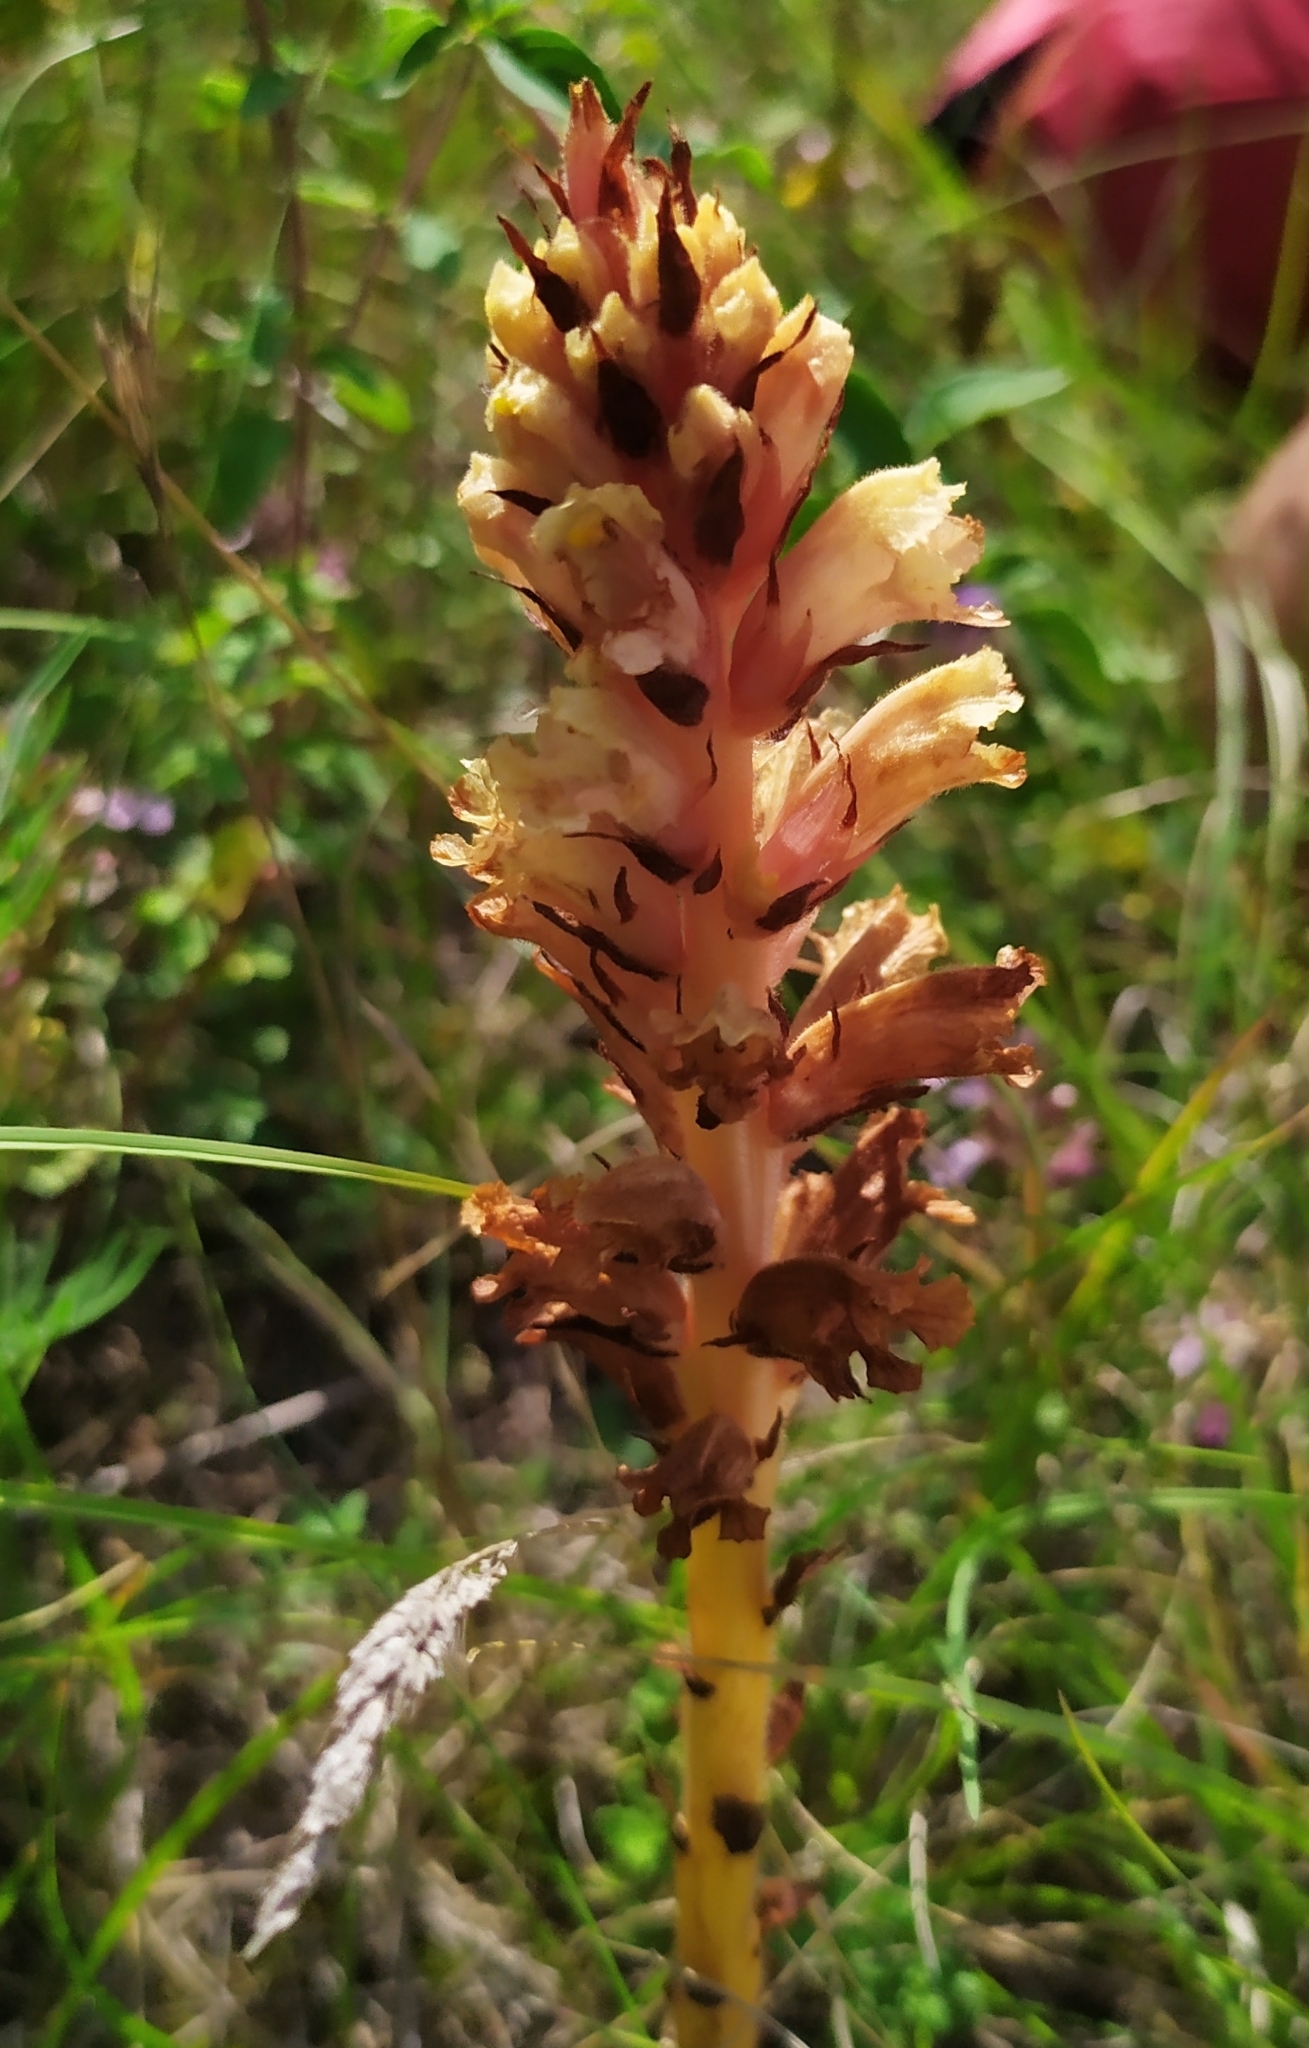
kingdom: Plantae
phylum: Tracheophyta
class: Magnoliopsida
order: Lamiales
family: Orobanchaceae
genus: Orobanche
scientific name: Orobanche centaurina
